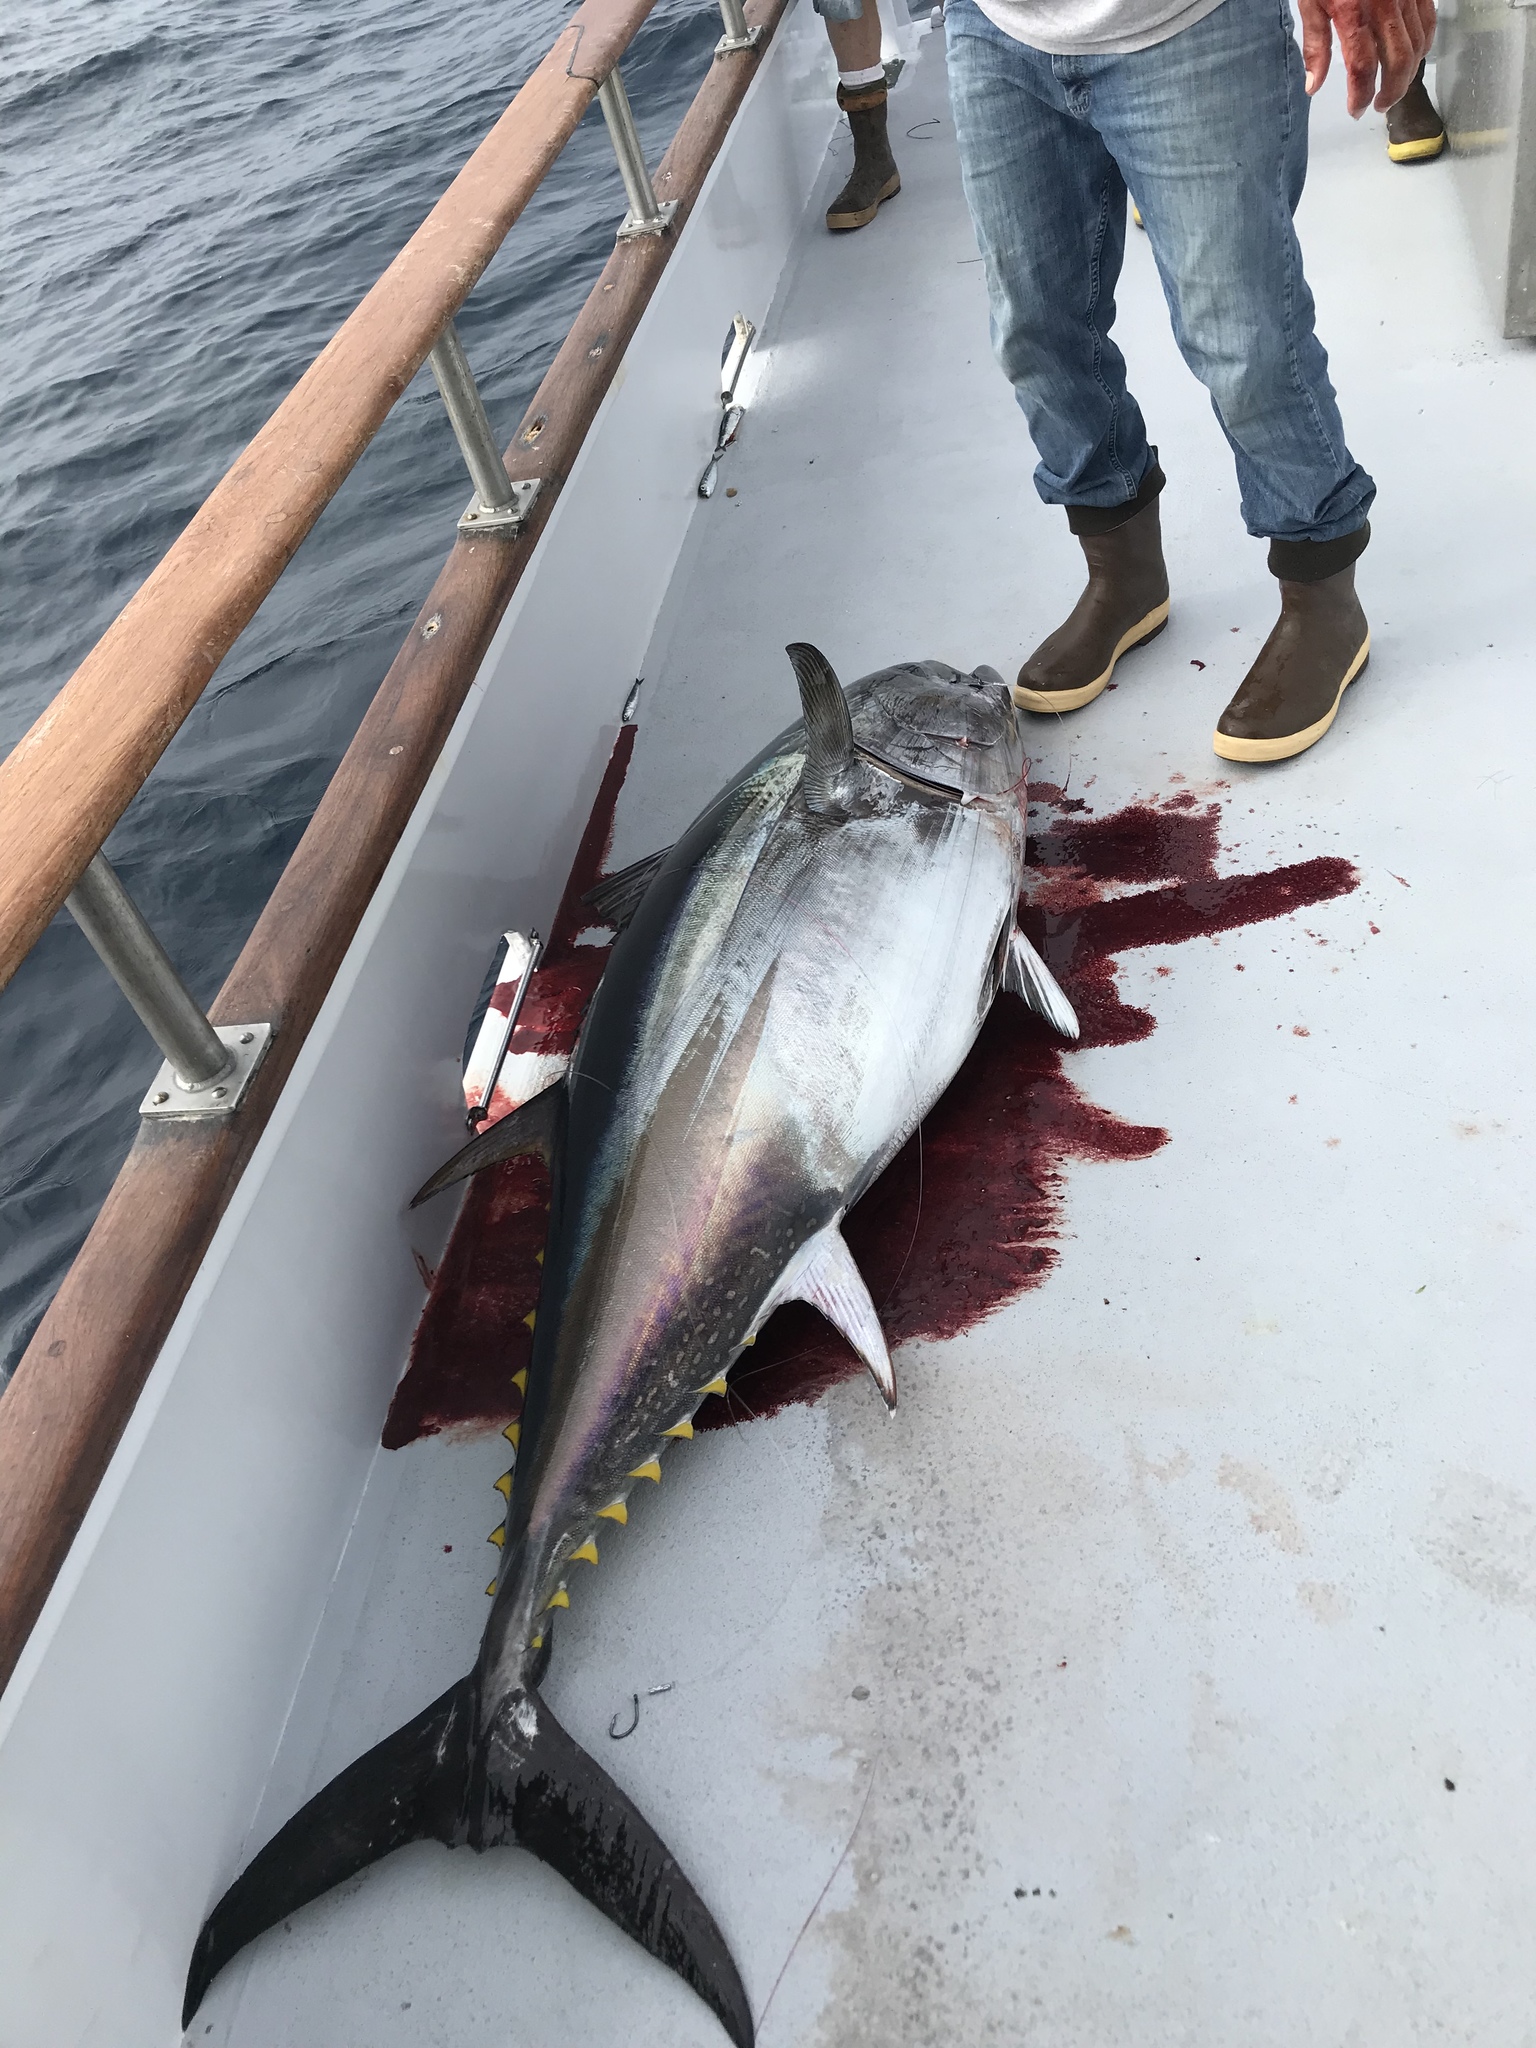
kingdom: Animalia
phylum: Chordata
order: Perciformes
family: Scombridae
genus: Thunnus
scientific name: Thunnus orientalis
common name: Pacific bluefin tuna
